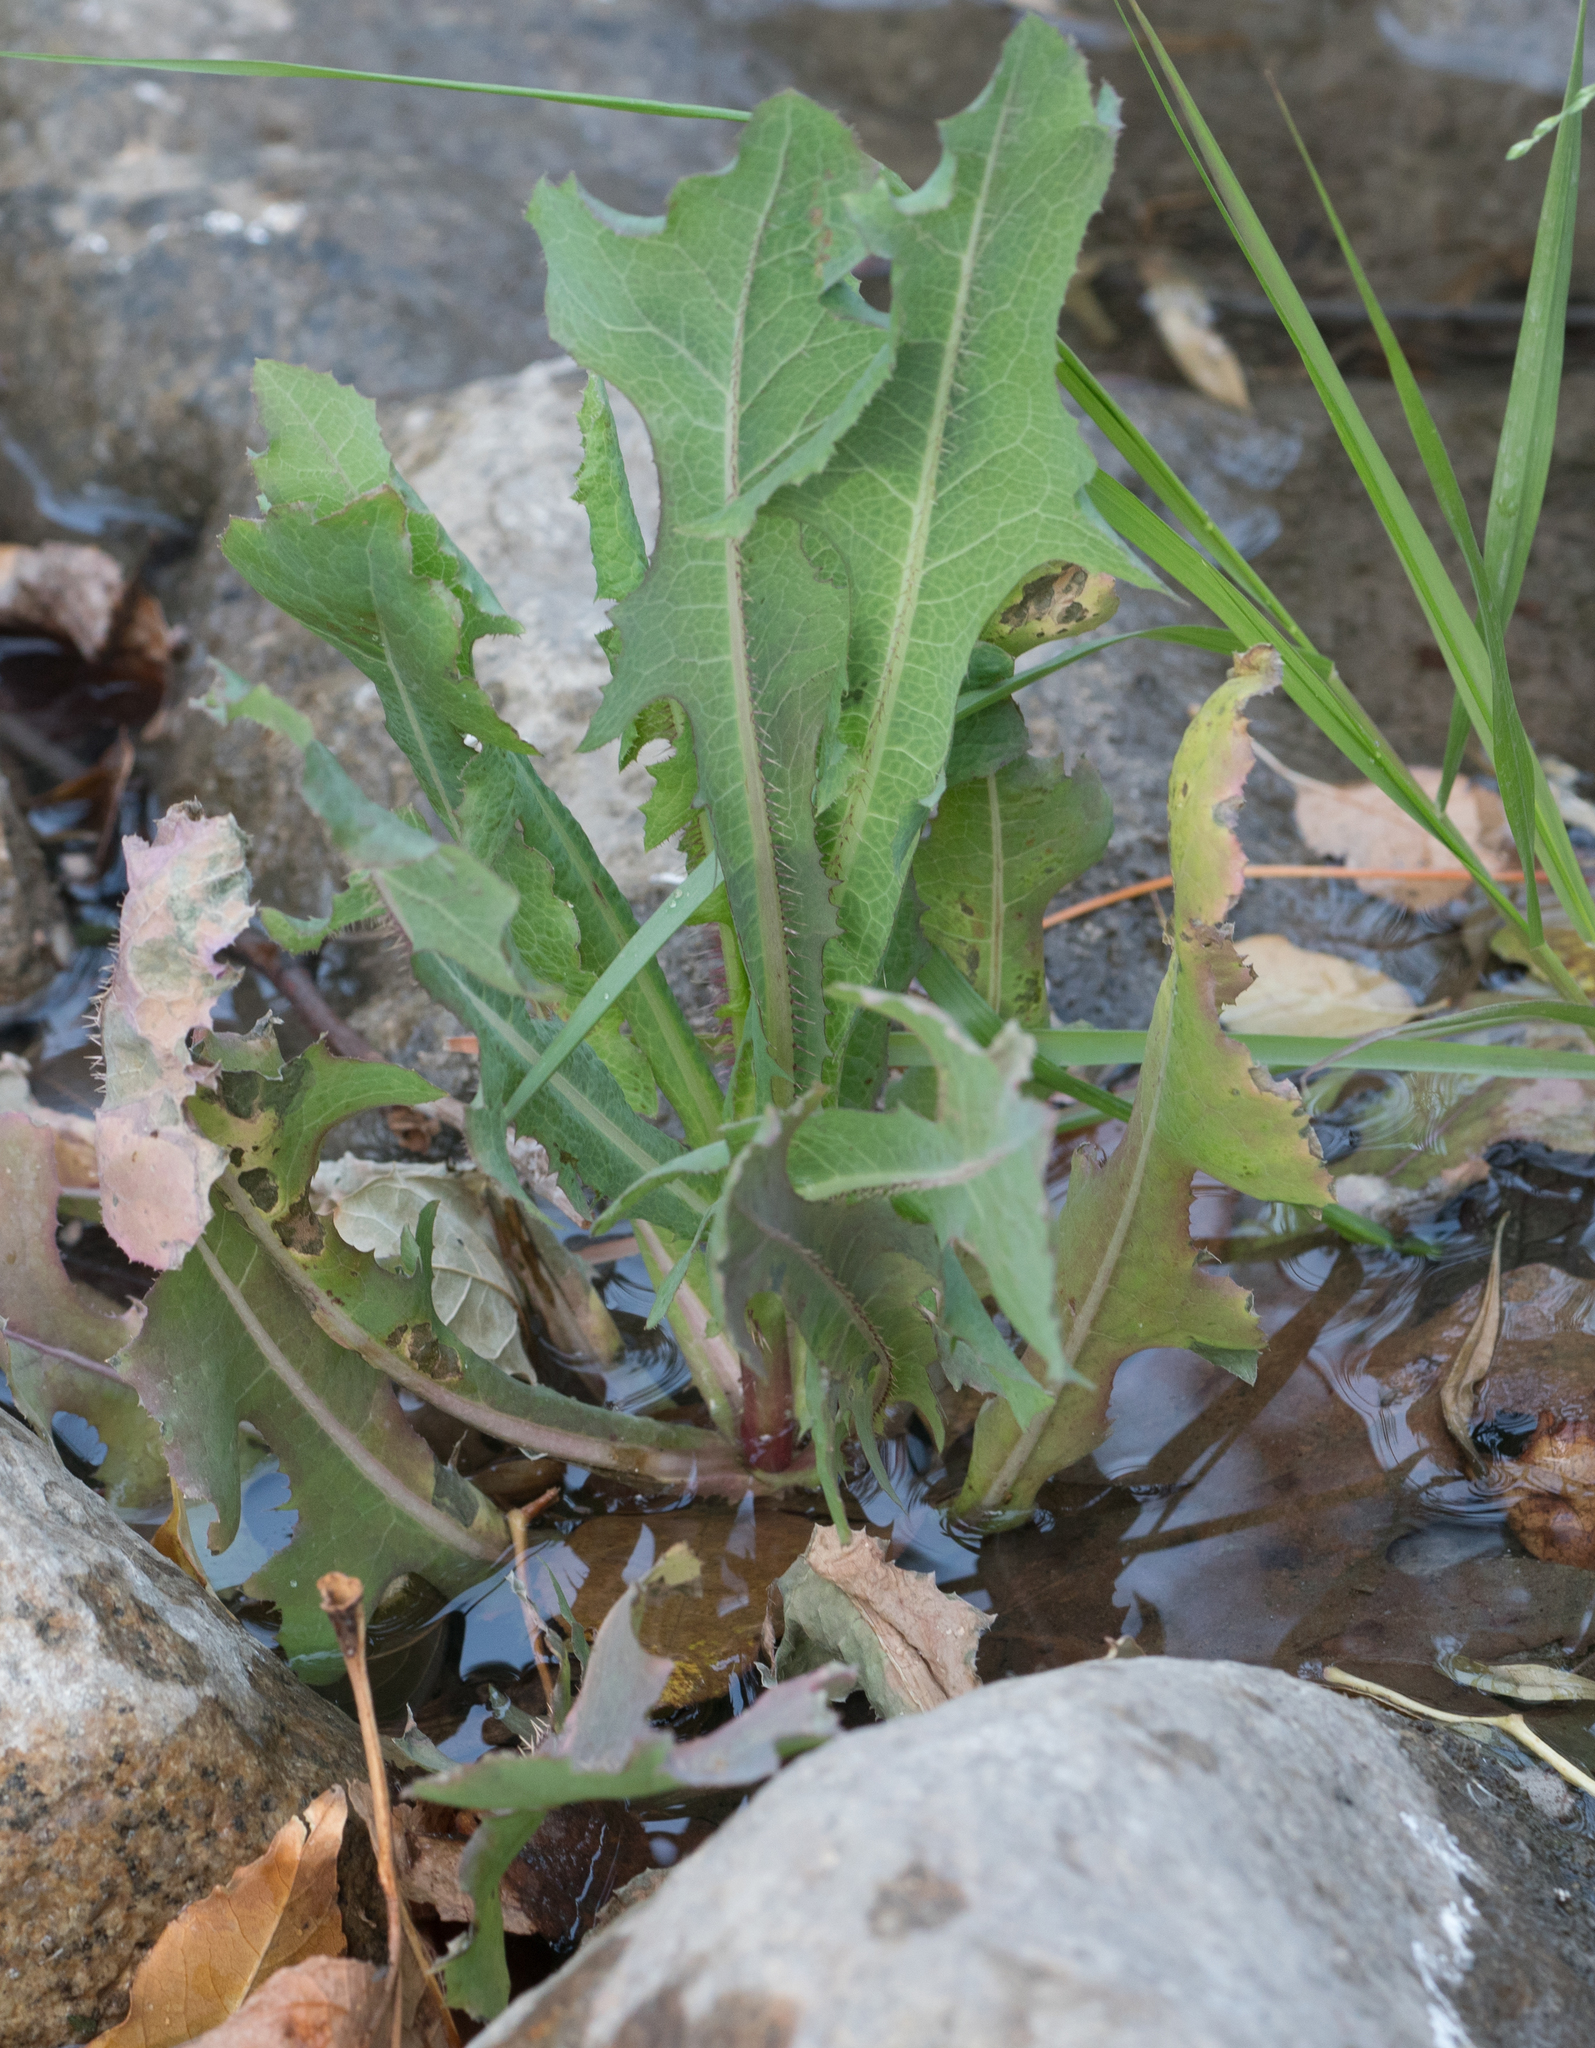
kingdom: Plantae
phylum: Tracheophyta
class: Magnoliopsida
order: Asterales
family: Asteraceae
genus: Lactuca
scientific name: Lactuca serriola
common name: Prickly lettuce
